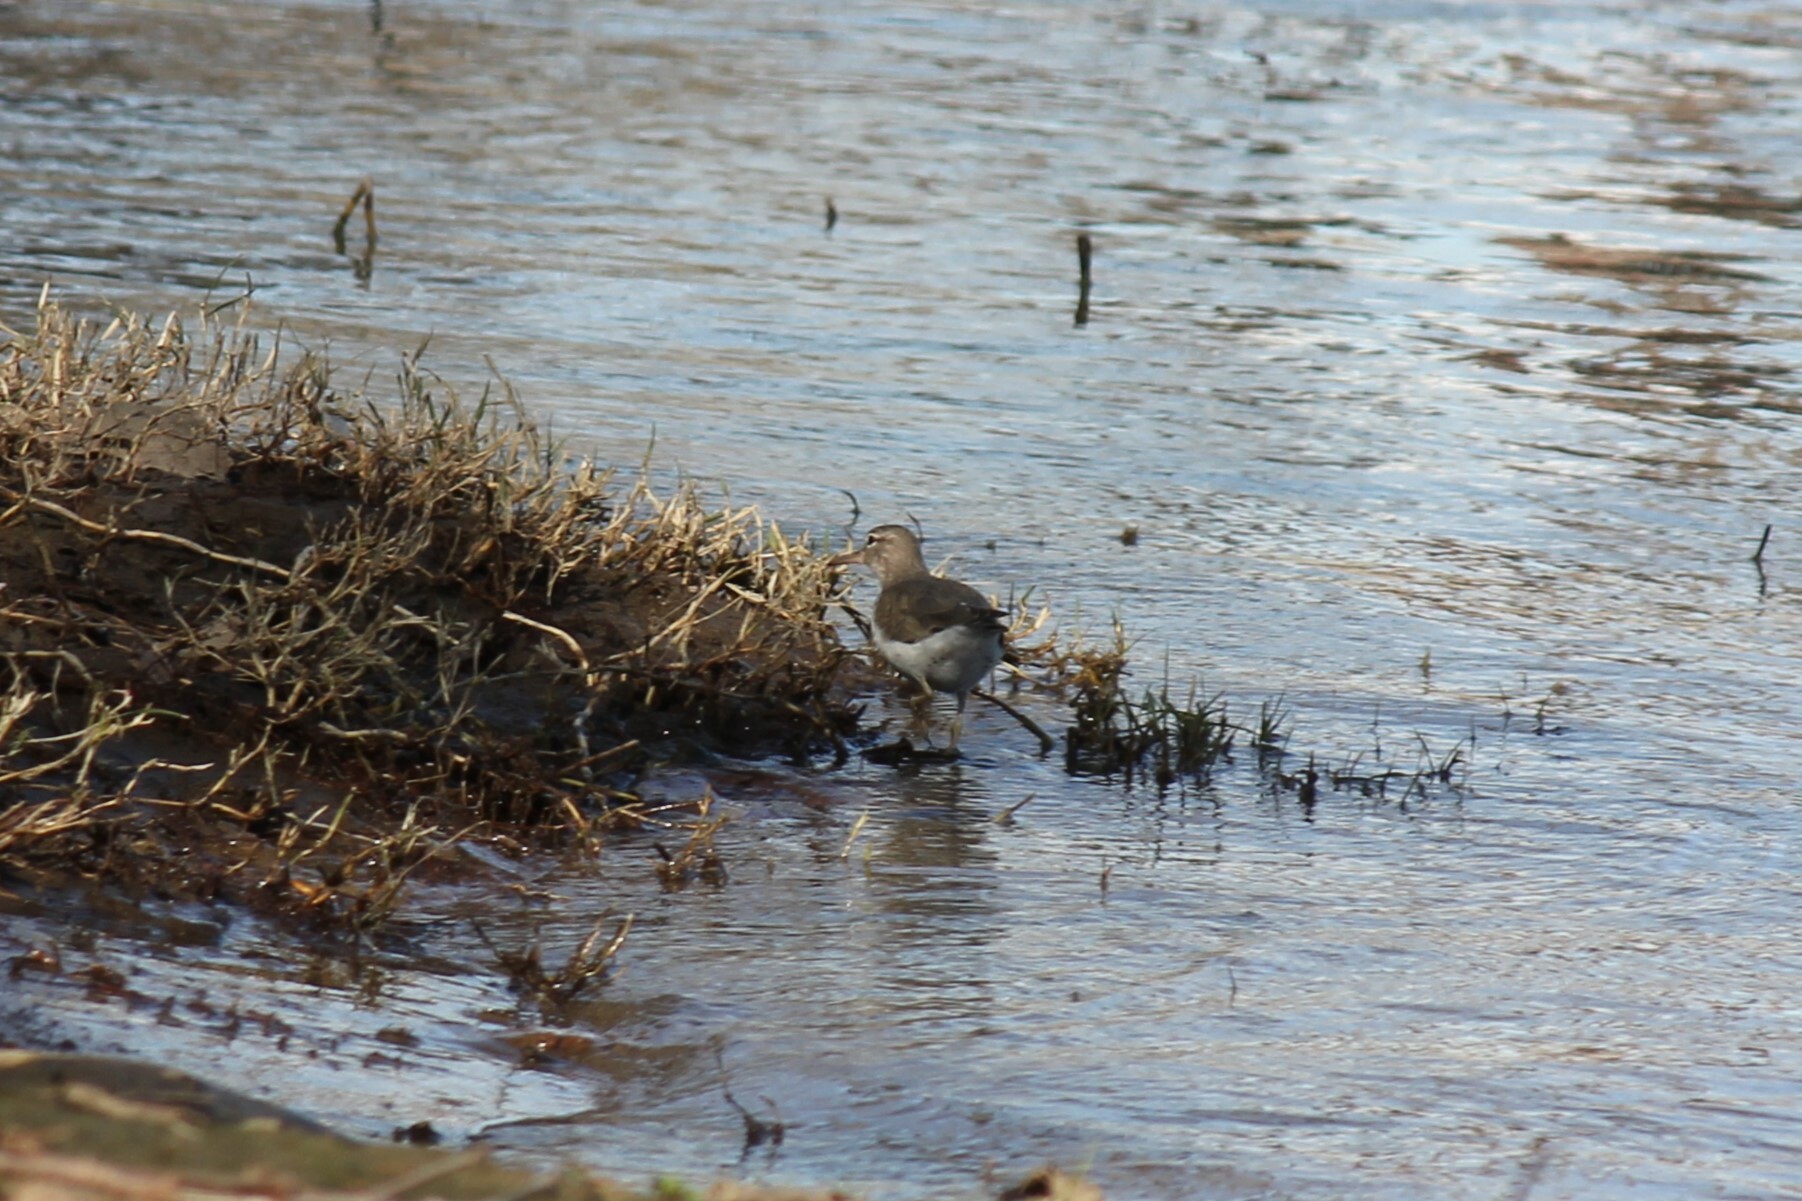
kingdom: Animalia
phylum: Chordata
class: Aves
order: Charadriiformes
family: Scolopacidae
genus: Actitis
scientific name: Actitis macularius
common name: Spotted sandpiper
